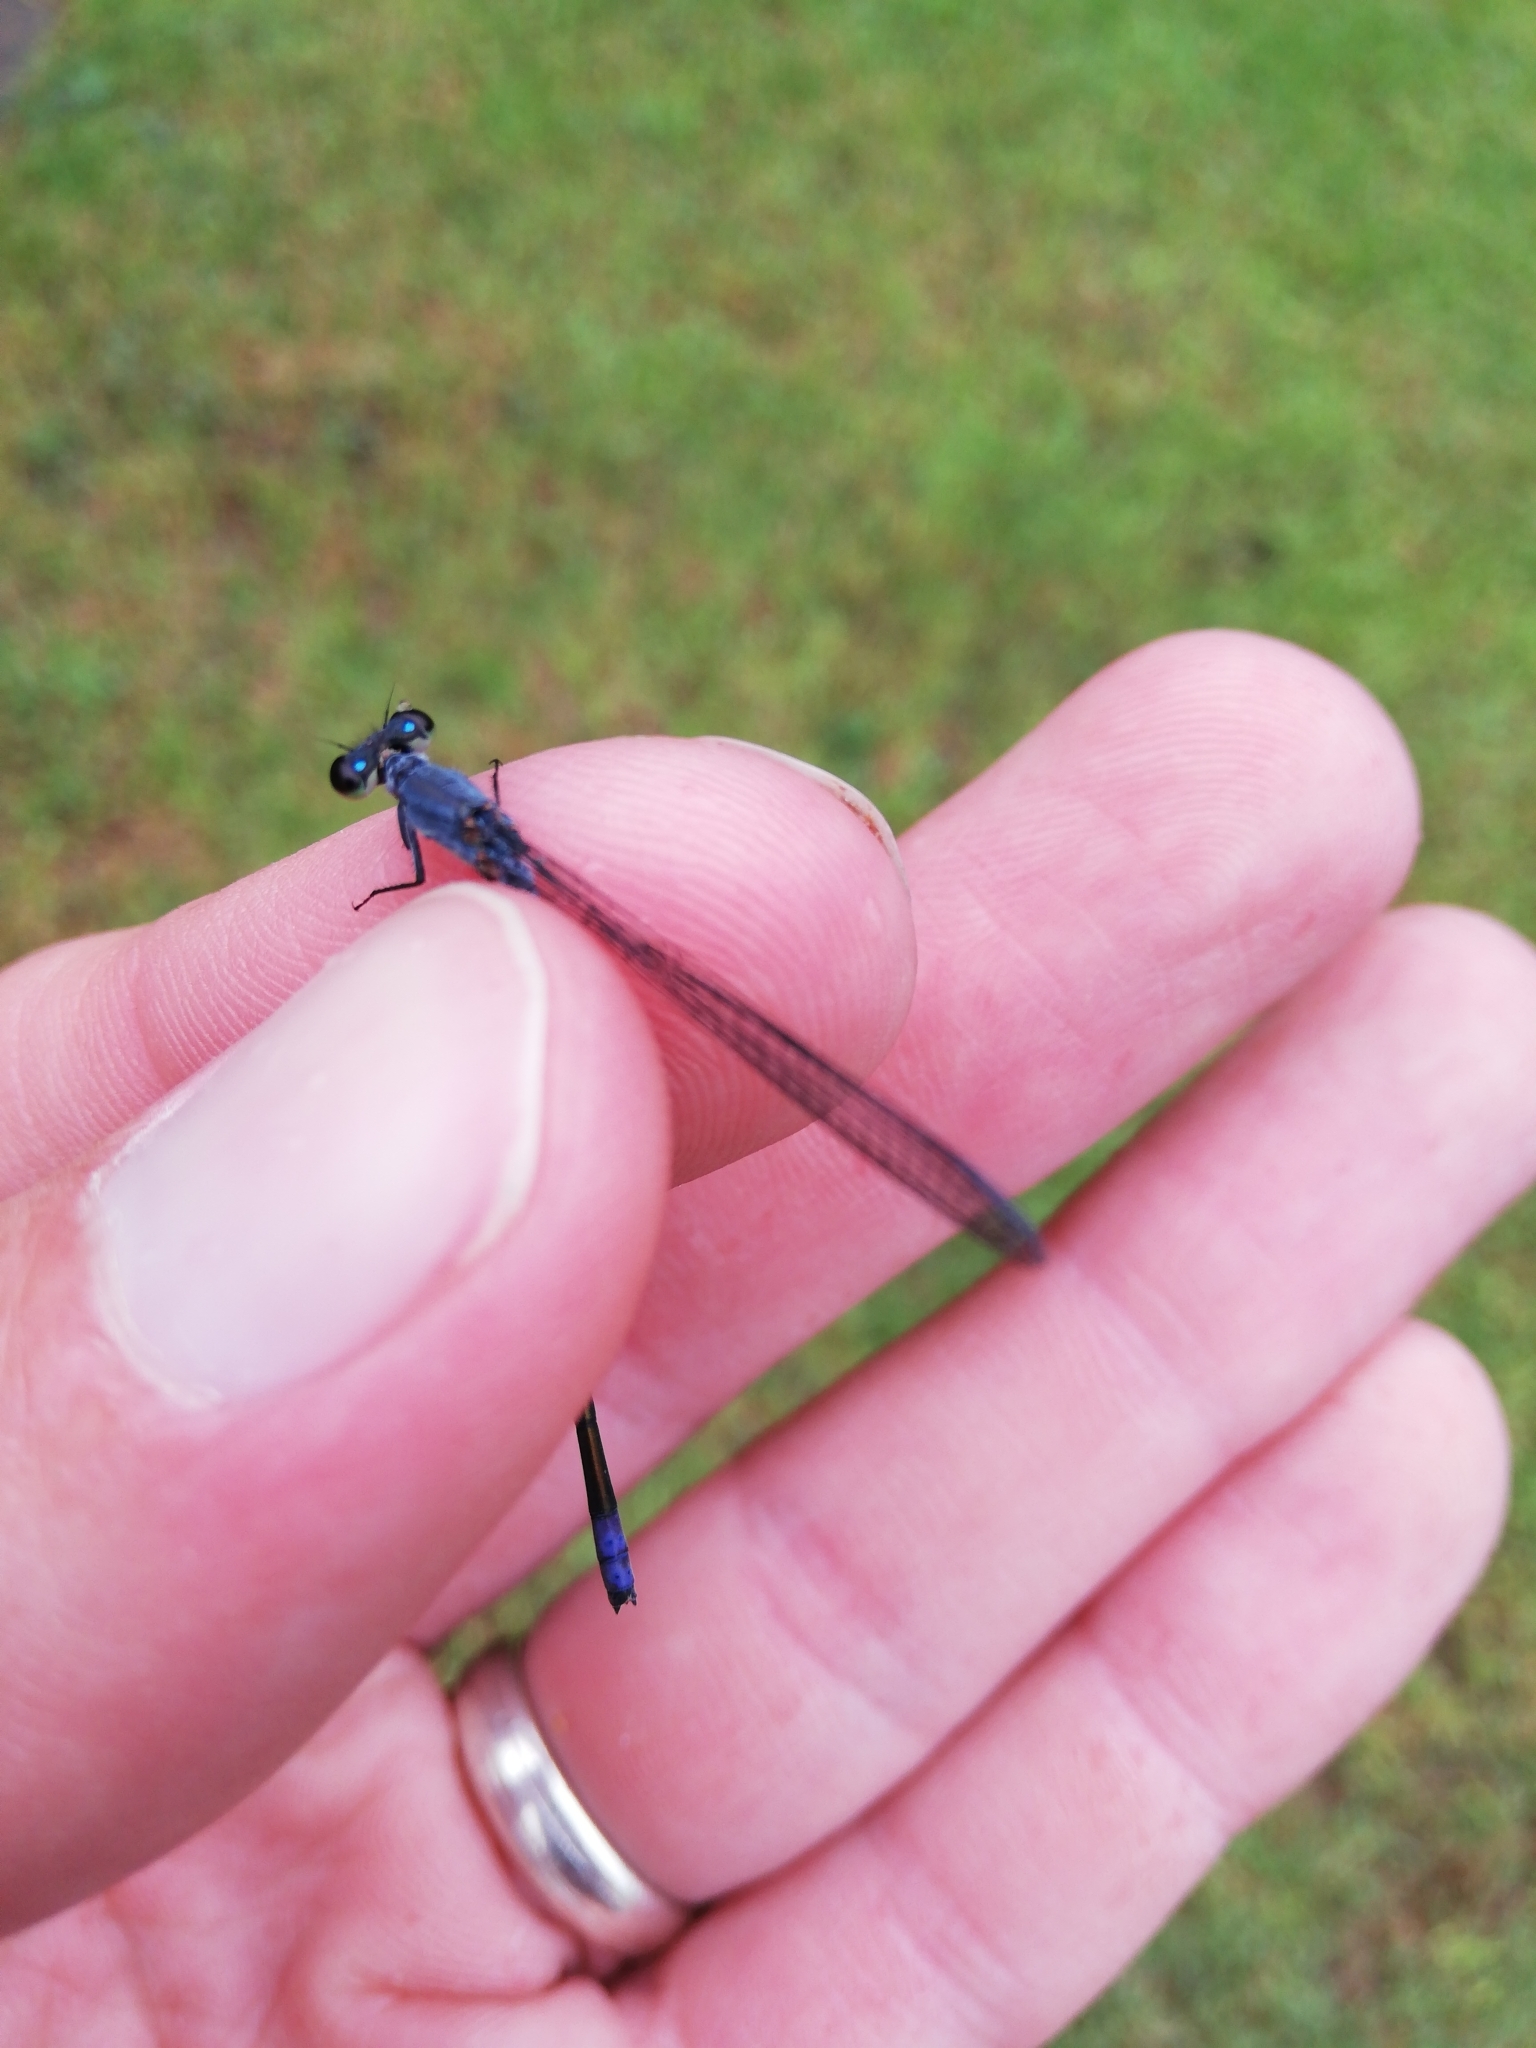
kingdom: Animalia
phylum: Arthropoda
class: Insecta
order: Odonata
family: Coenagrionidae
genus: Pseudagrion
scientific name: Pseudagrion draconis
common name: Mountain sprite
